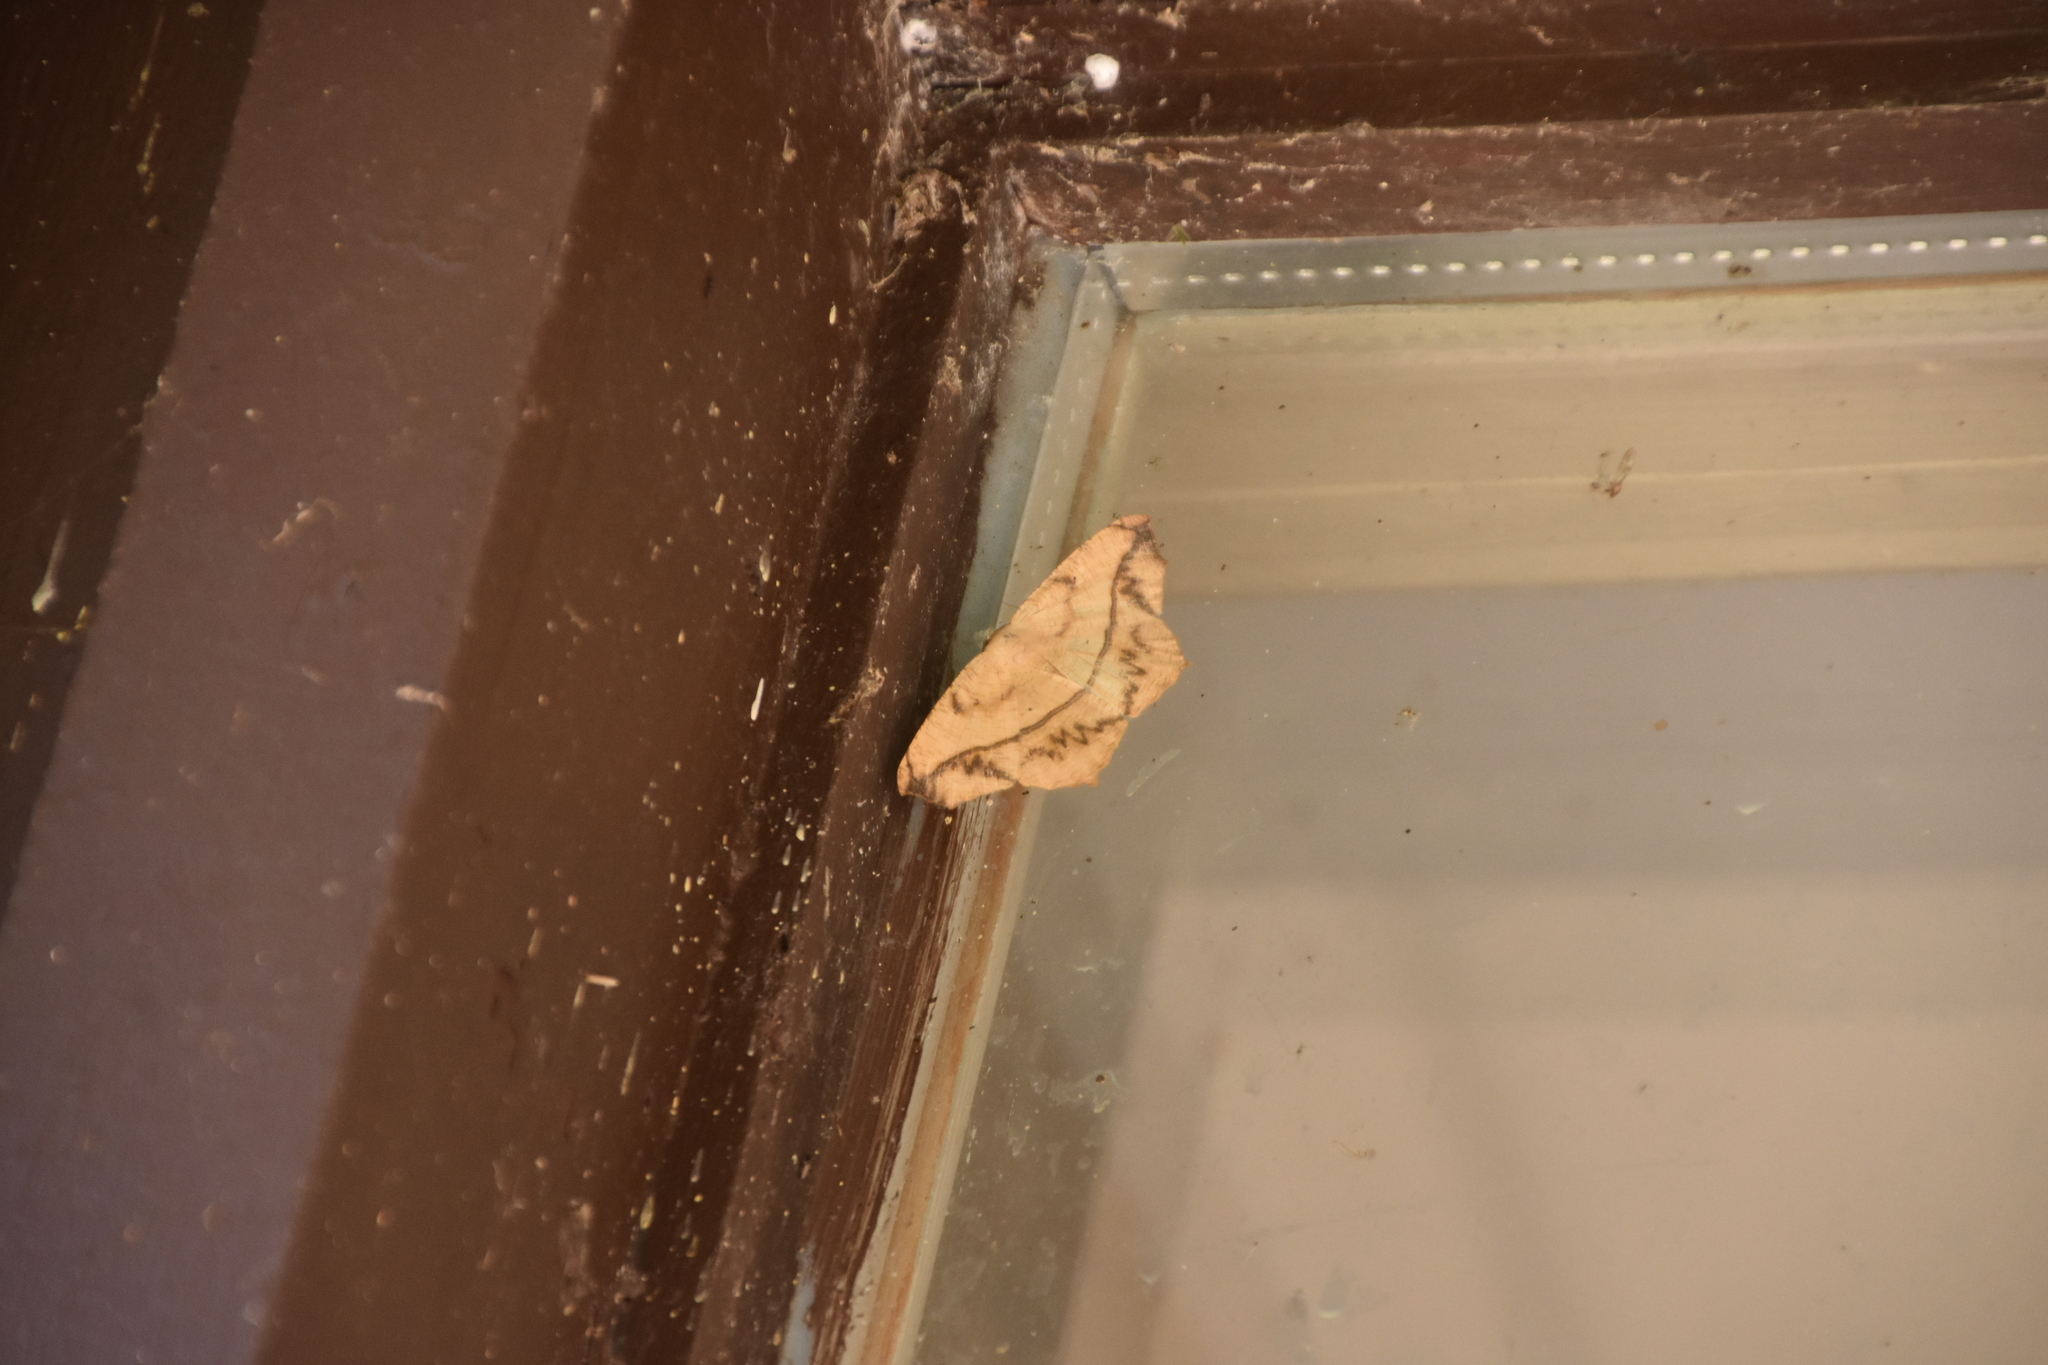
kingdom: Animalia
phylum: Arthropoda
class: Insecta
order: Lepidoptera
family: Geometridae
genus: Prochoerodes
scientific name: Prochoerodes lineola
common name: Large maple spanworm
